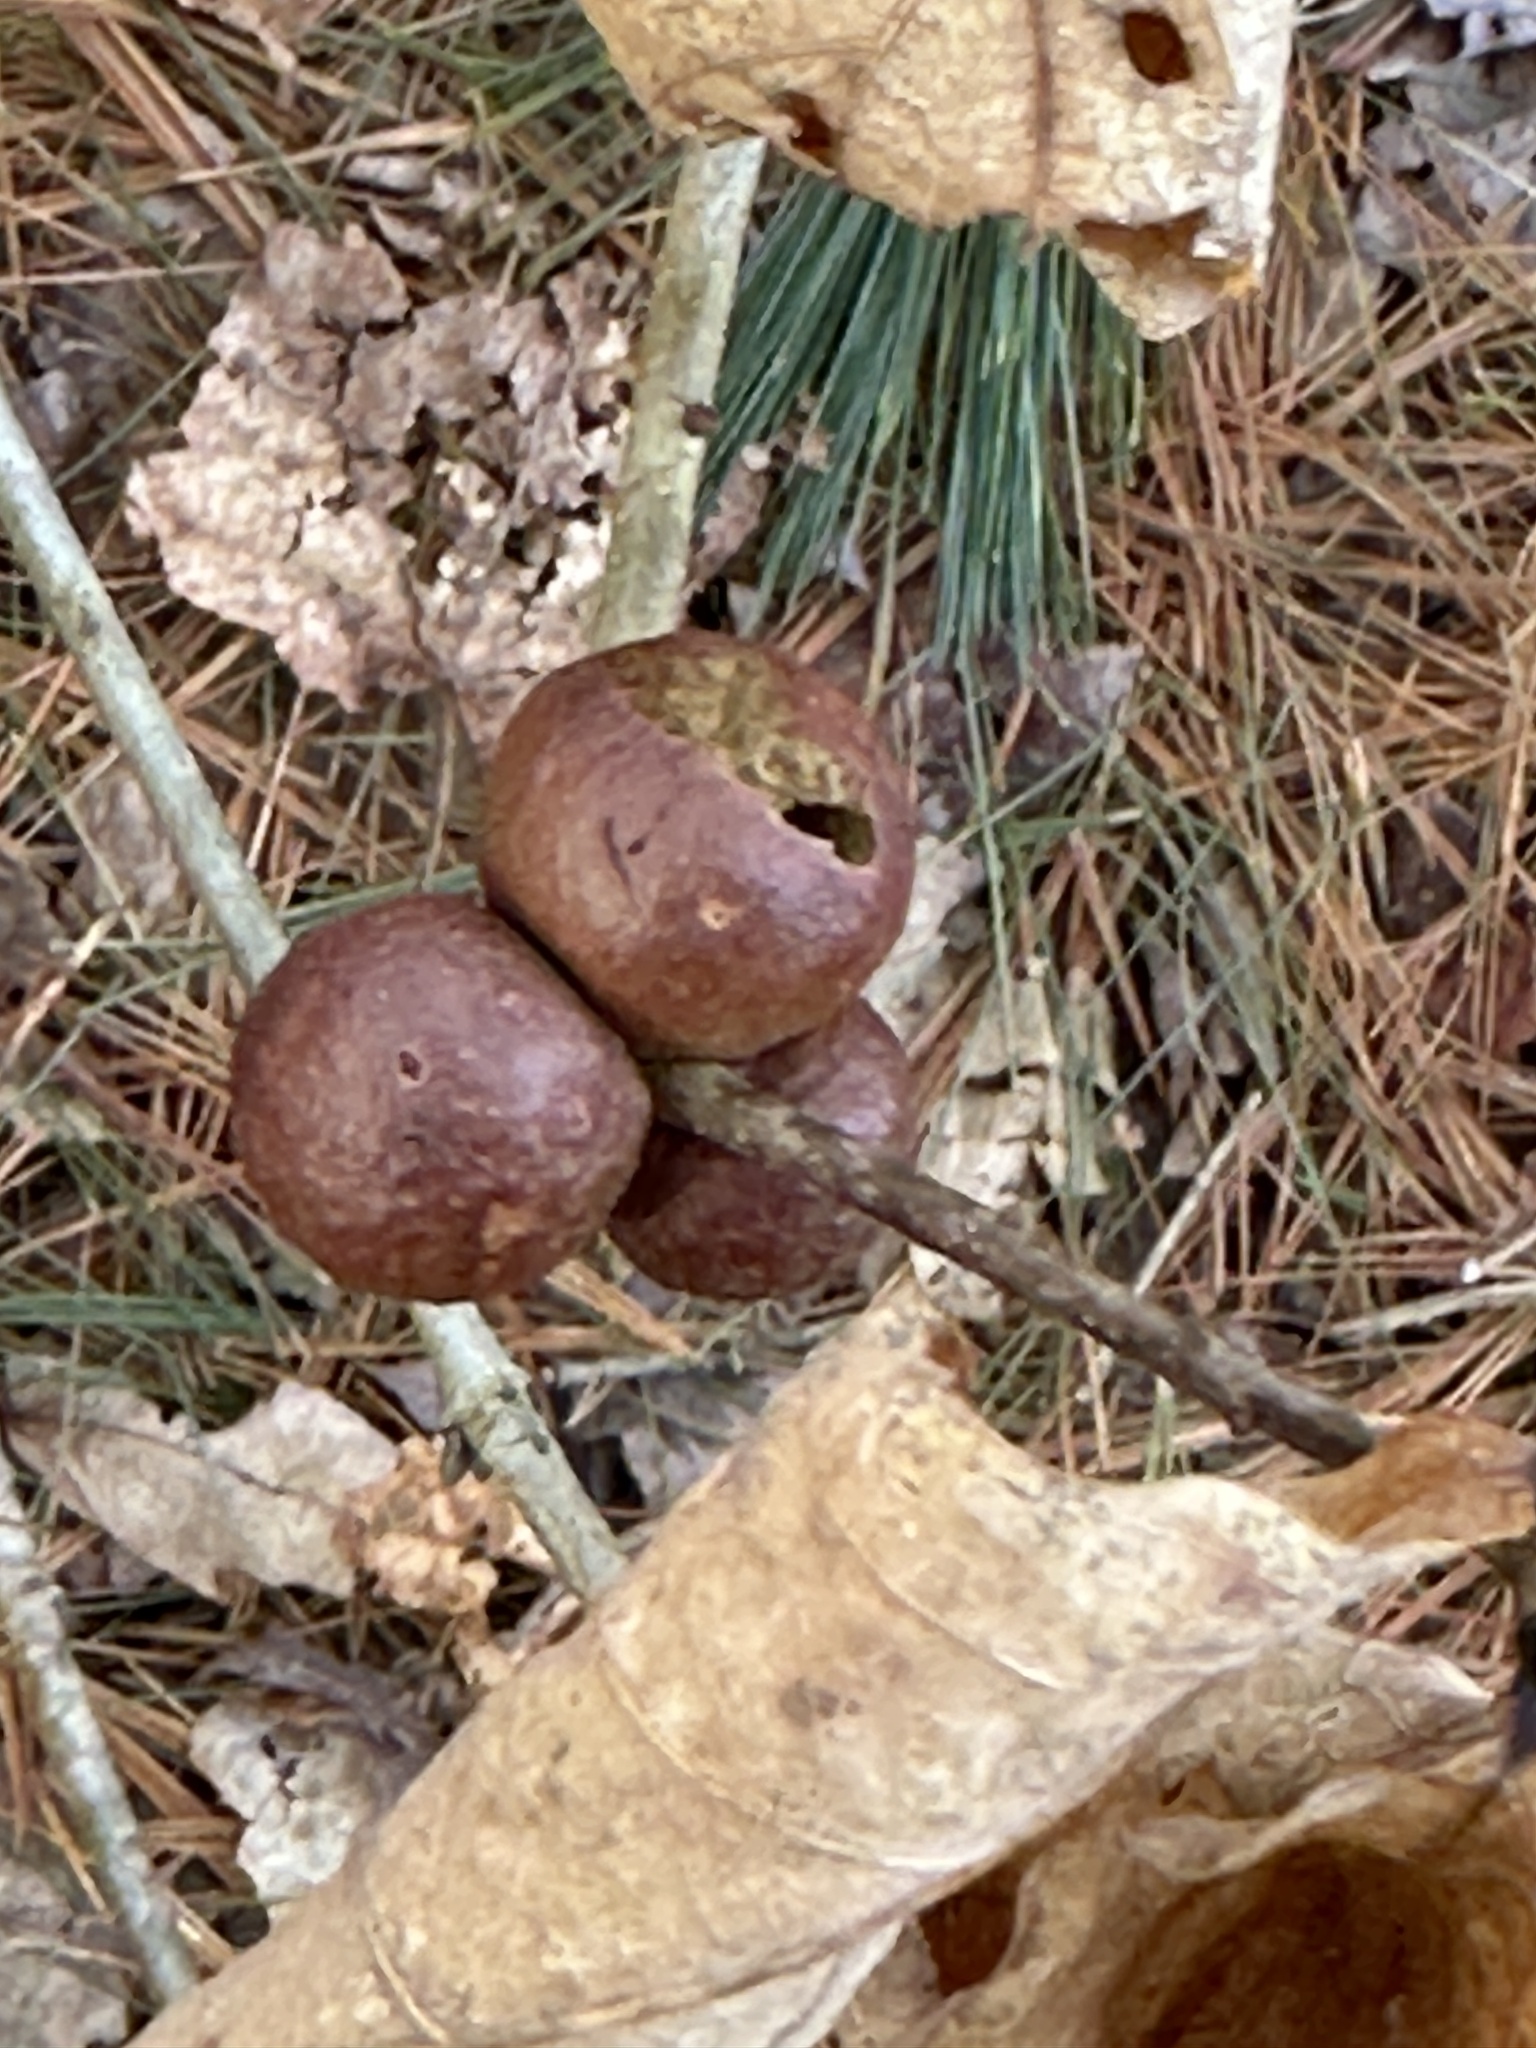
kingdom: Animalia
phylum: Arthropoda
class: Insecta
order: Hymenoptera
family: Cynipidae
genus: Disholcaspis
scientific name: Disholcaspis quercusglobulus
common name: Round bullet gall wasp
